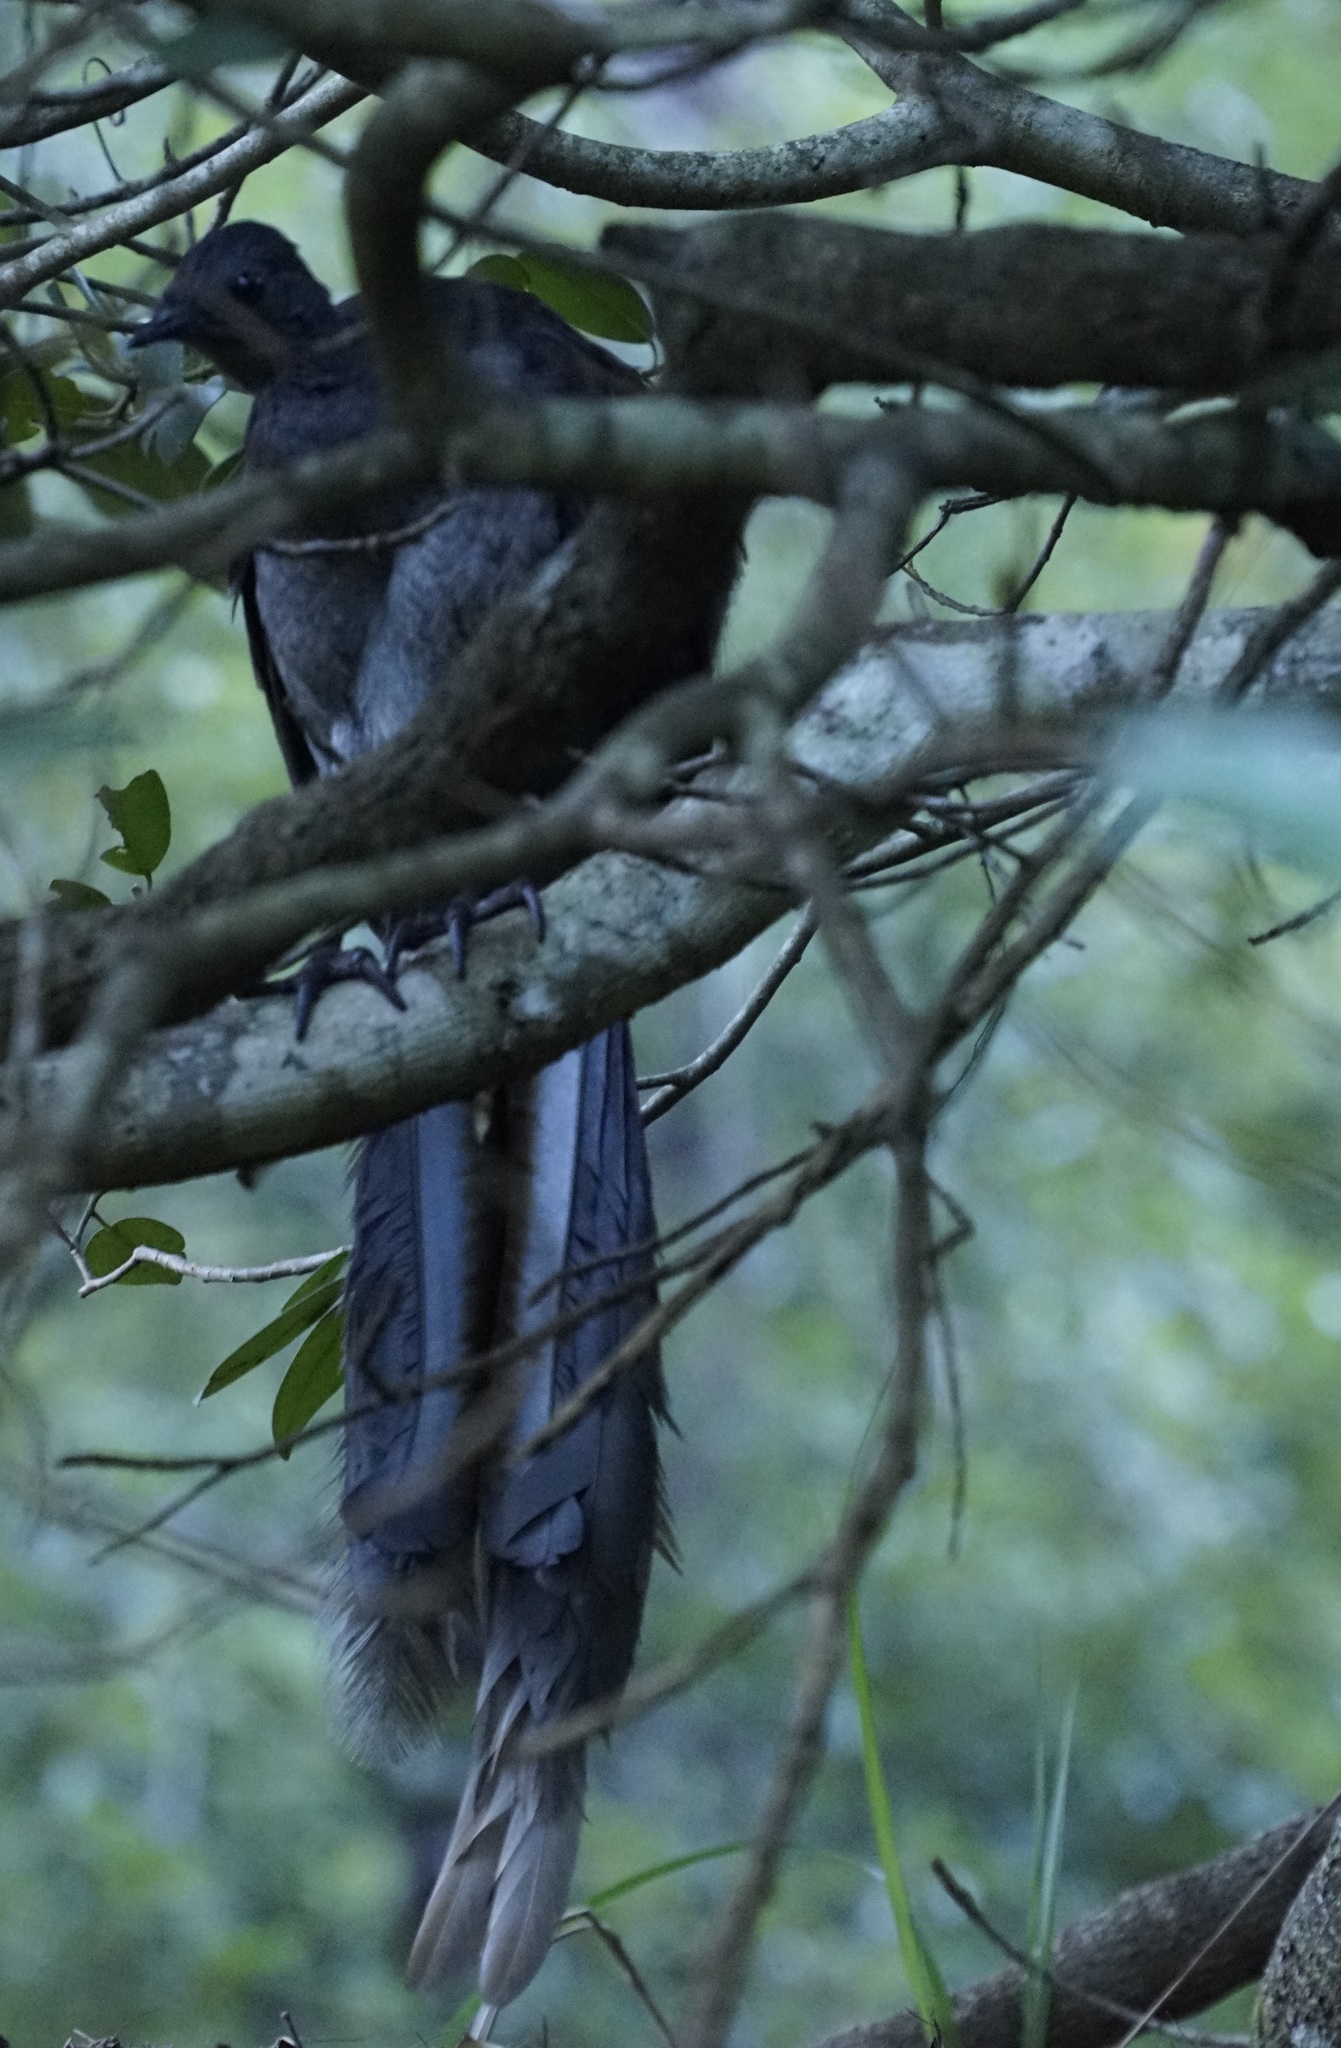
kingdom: Animalia
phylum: Chordata
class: Aves
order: Passeriformes
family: Menuridae
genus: Menura
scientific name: Menura novaehollandiae
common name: Superb lyrebird
